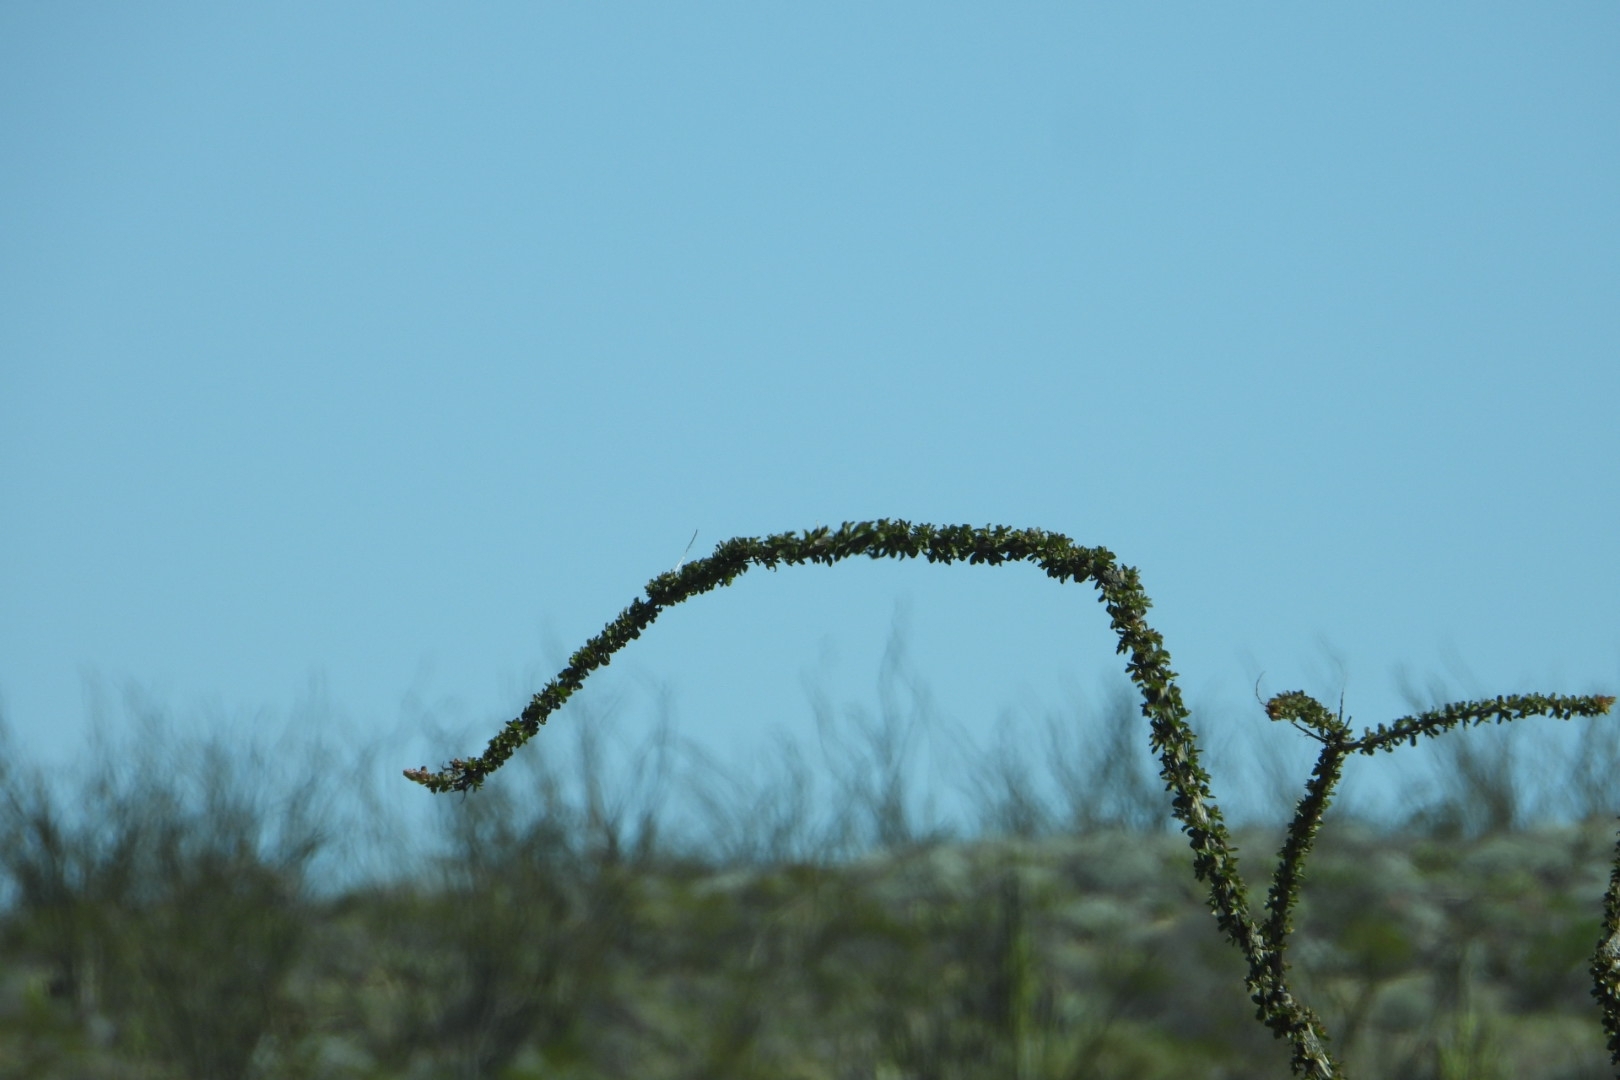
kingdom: Plantae
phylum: Tracheophyta
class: Magnoliopsida
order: Ericales
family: Fouquieriaceae
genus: Fouquieria
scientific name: Fouquieria splendens
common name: Vine-cactus
